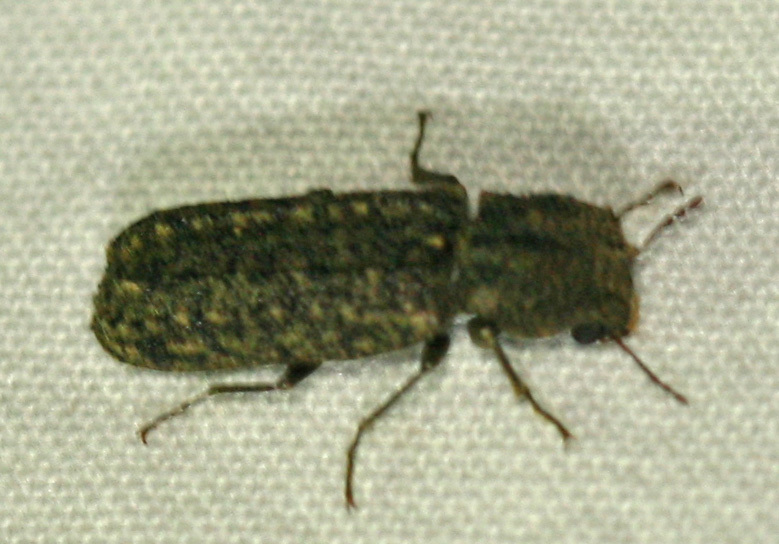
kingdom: Animalia
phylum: Arthropoda
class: Insecta
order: Coleoptera
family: Bostrichidae
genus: Lichenophanes
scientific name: Lichenophanes bicornis
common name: Two-horned powder-post beetle
